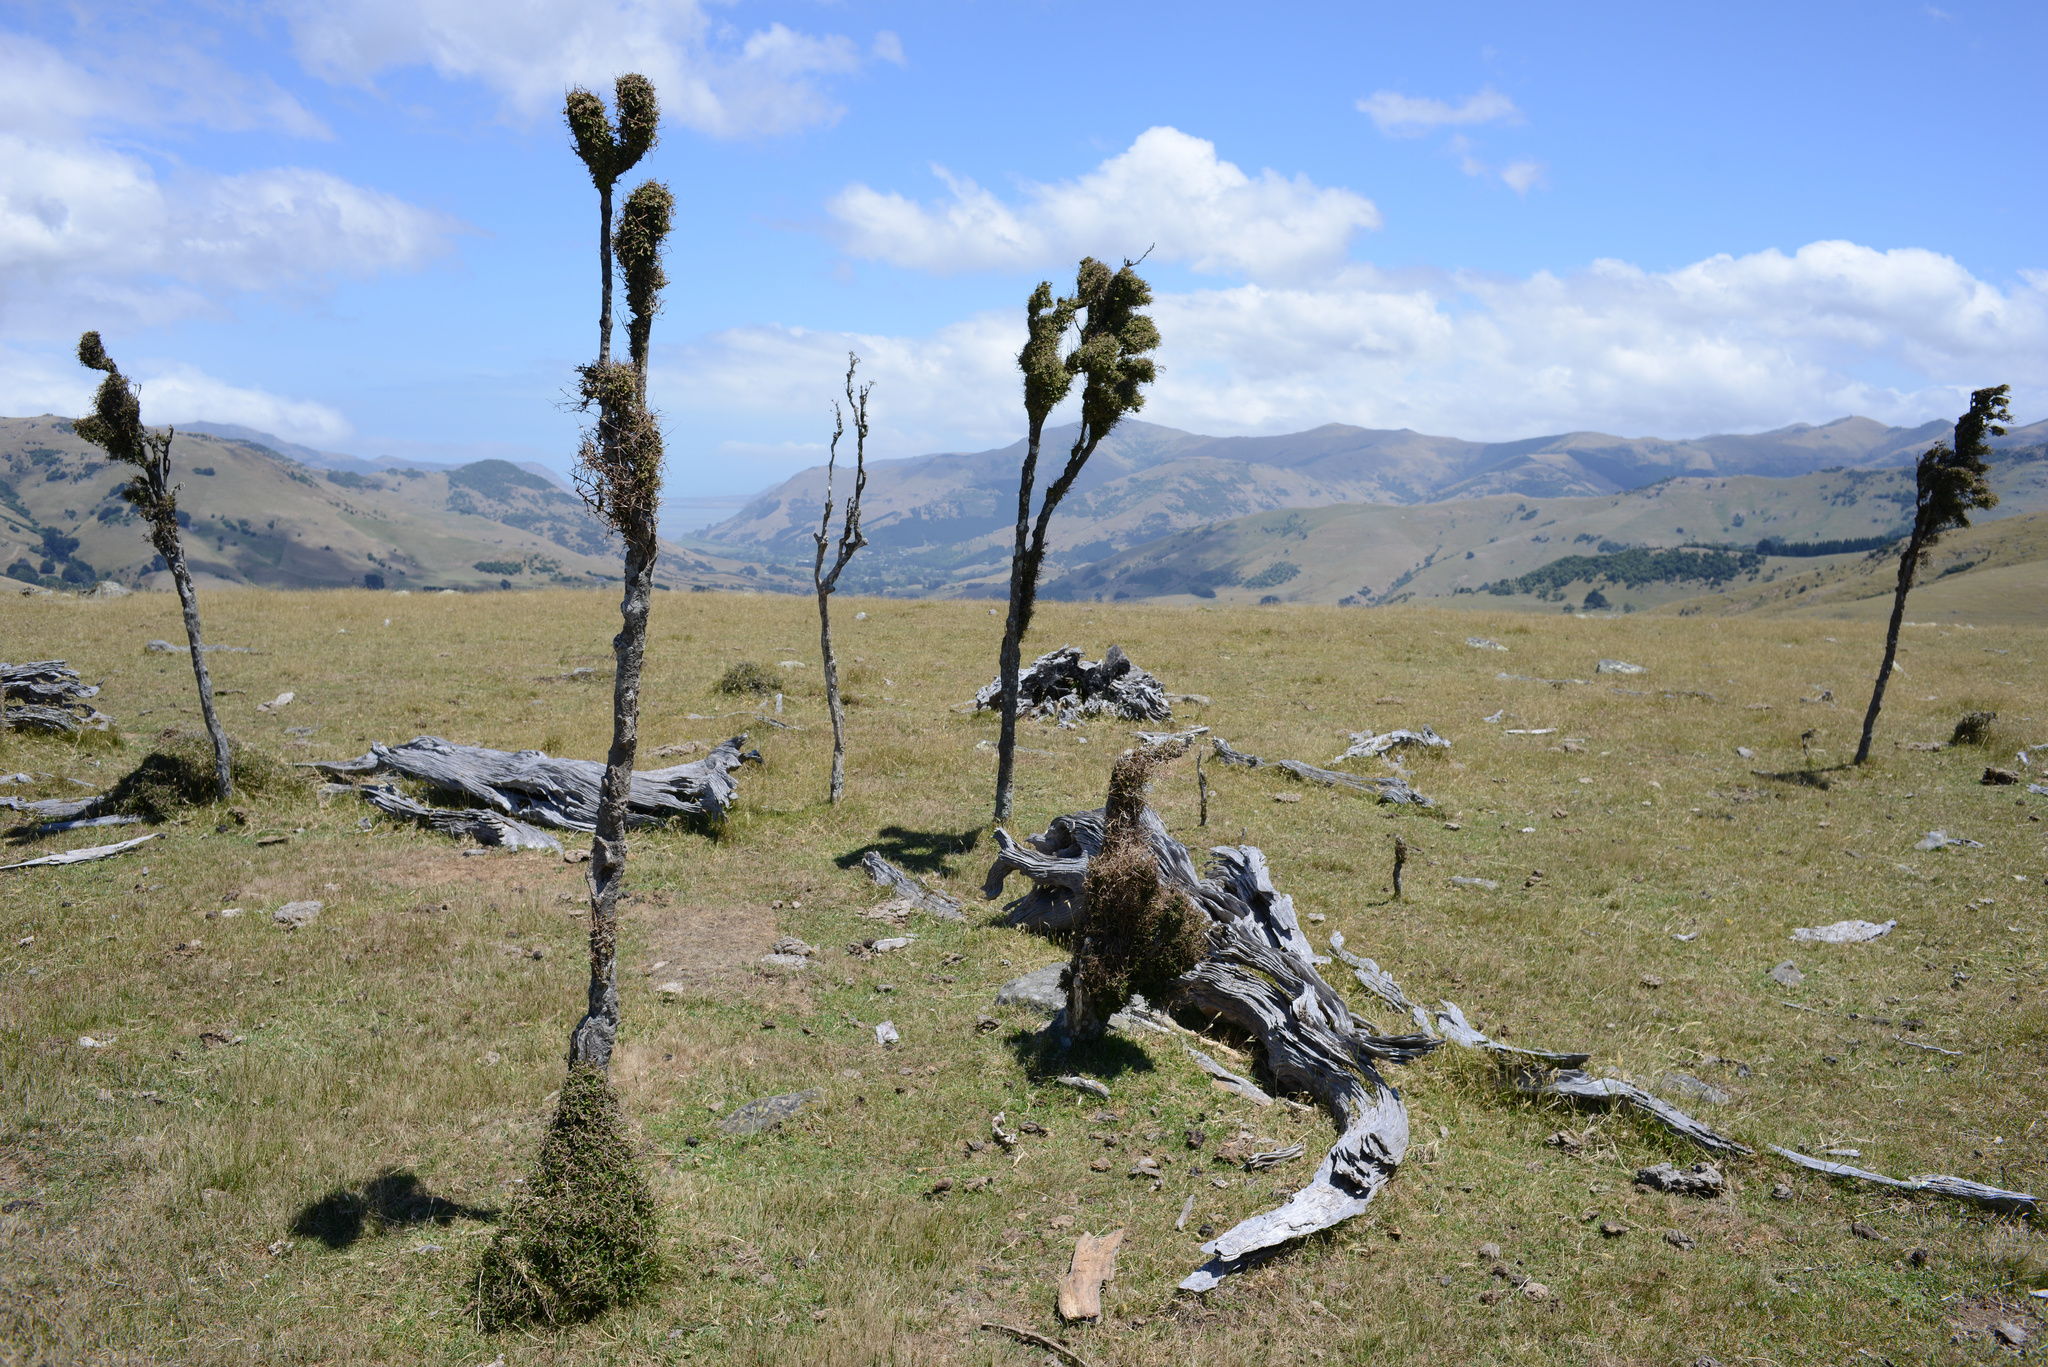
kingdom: Plantae
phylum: Tracheophyta
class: Magnoliopsida
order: Gentianales
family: Rubiaceae
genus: Coprosma
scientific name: Coprosma rubra
